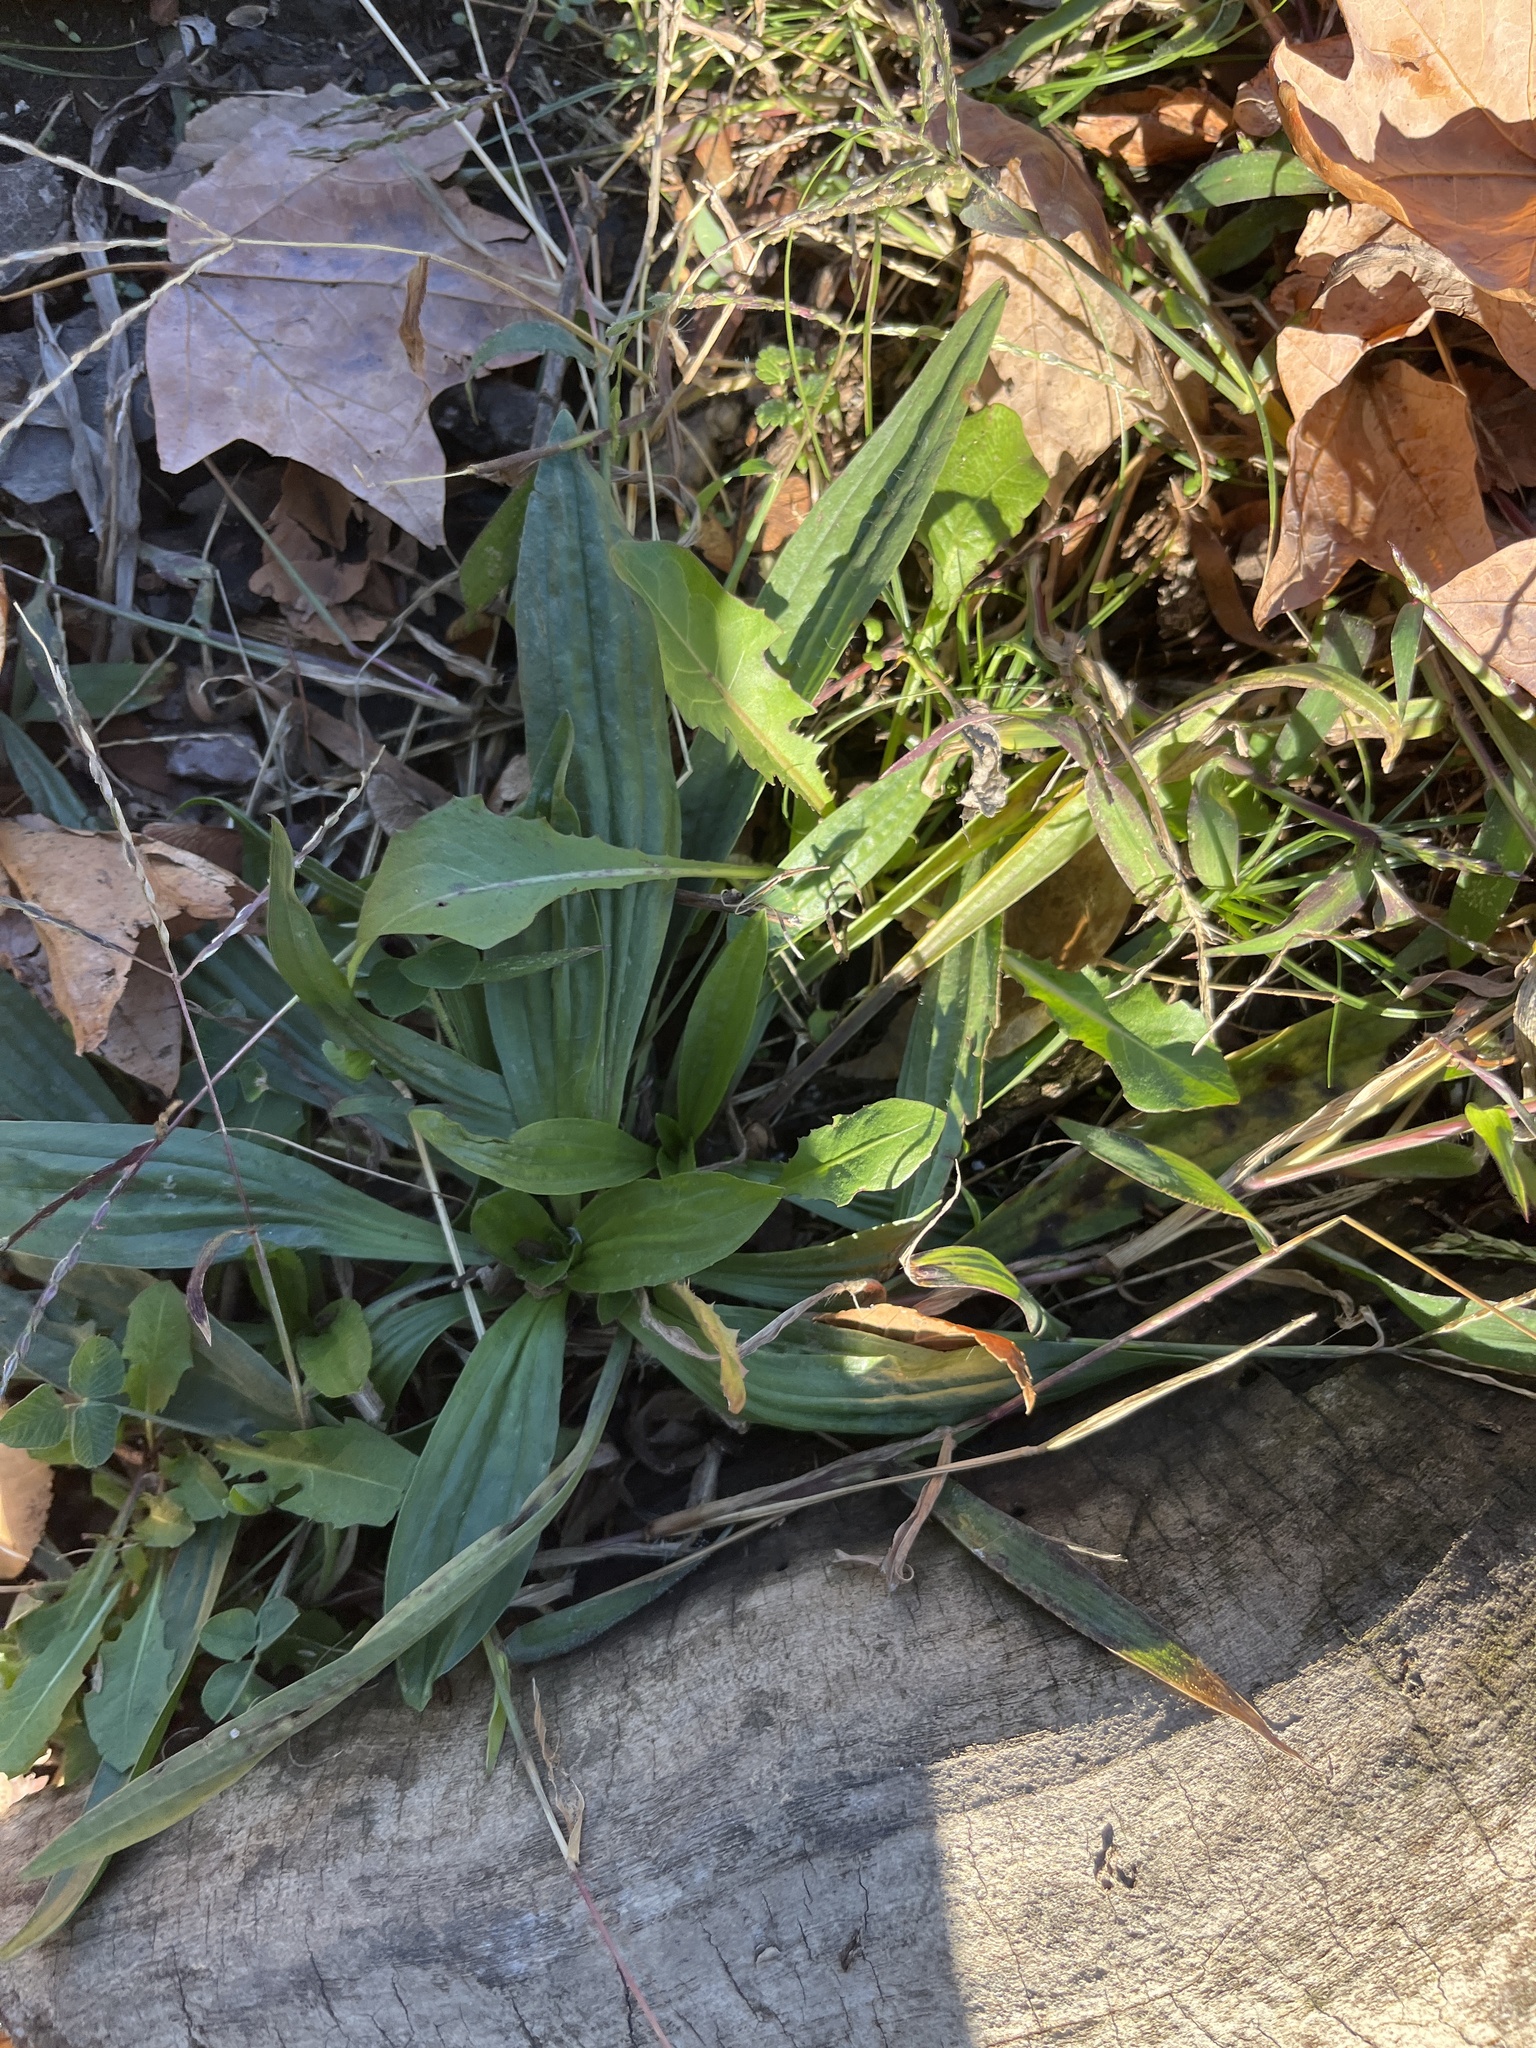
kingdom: Plantae
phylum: Tracheophyta
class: Magnoliopsida
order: Lamiales
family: Plantaginaceae
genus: Plantago
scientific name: Plantago lanceolata
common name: Ribwort plantain
